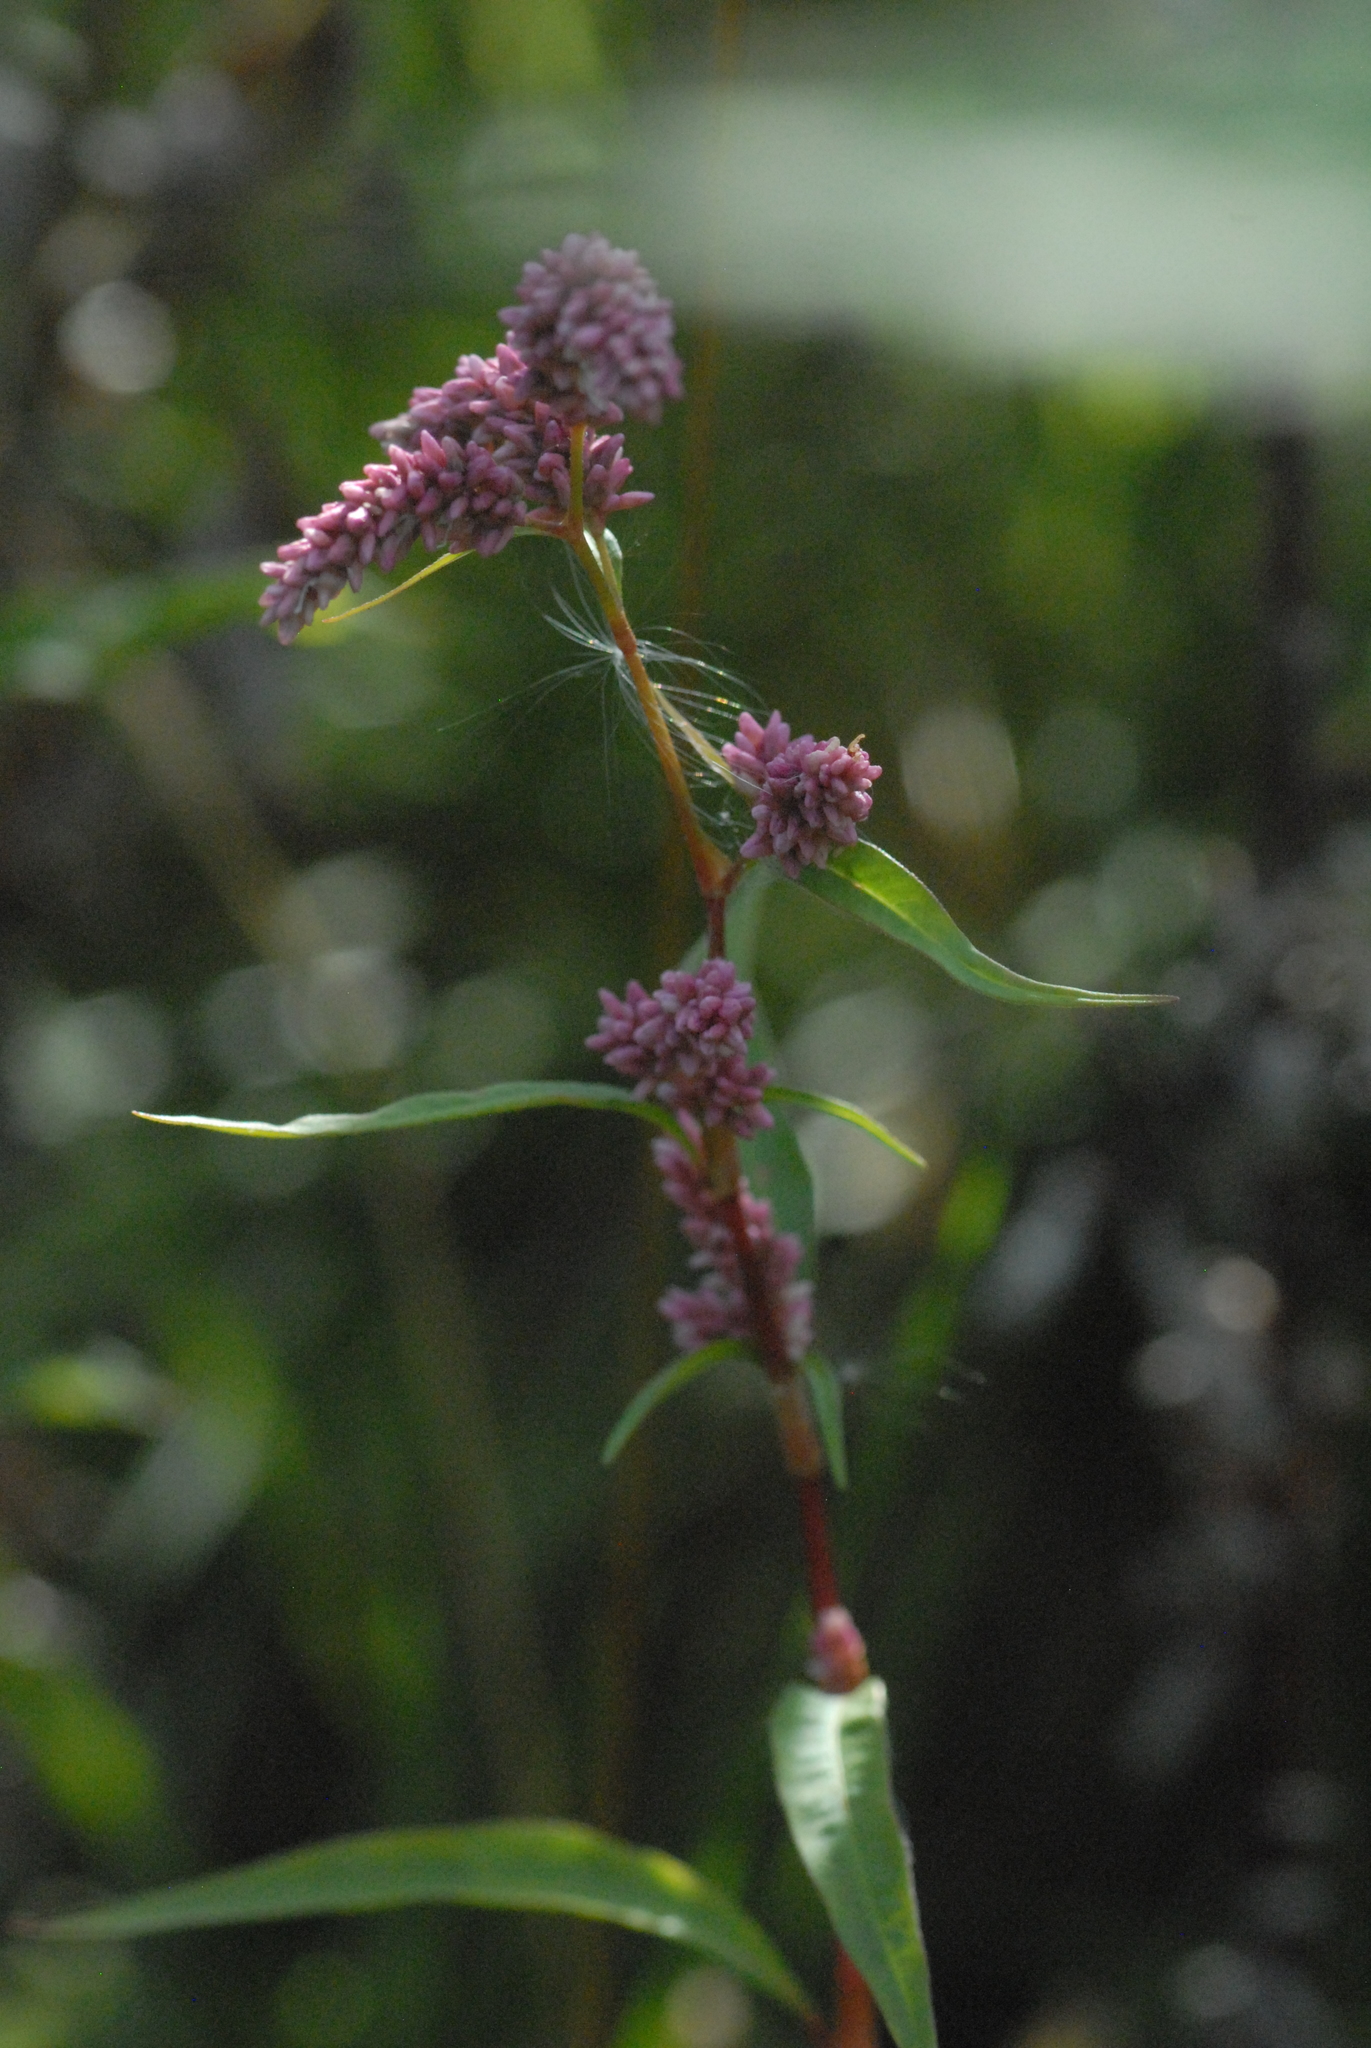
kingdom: Plantae
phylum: Tracheophyta
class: Magnoliopsida
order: Caryophyllales
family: Polygonaceae
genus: Persicaria
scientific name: Persicaria lapathifolia
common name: Curlytop knotweed
